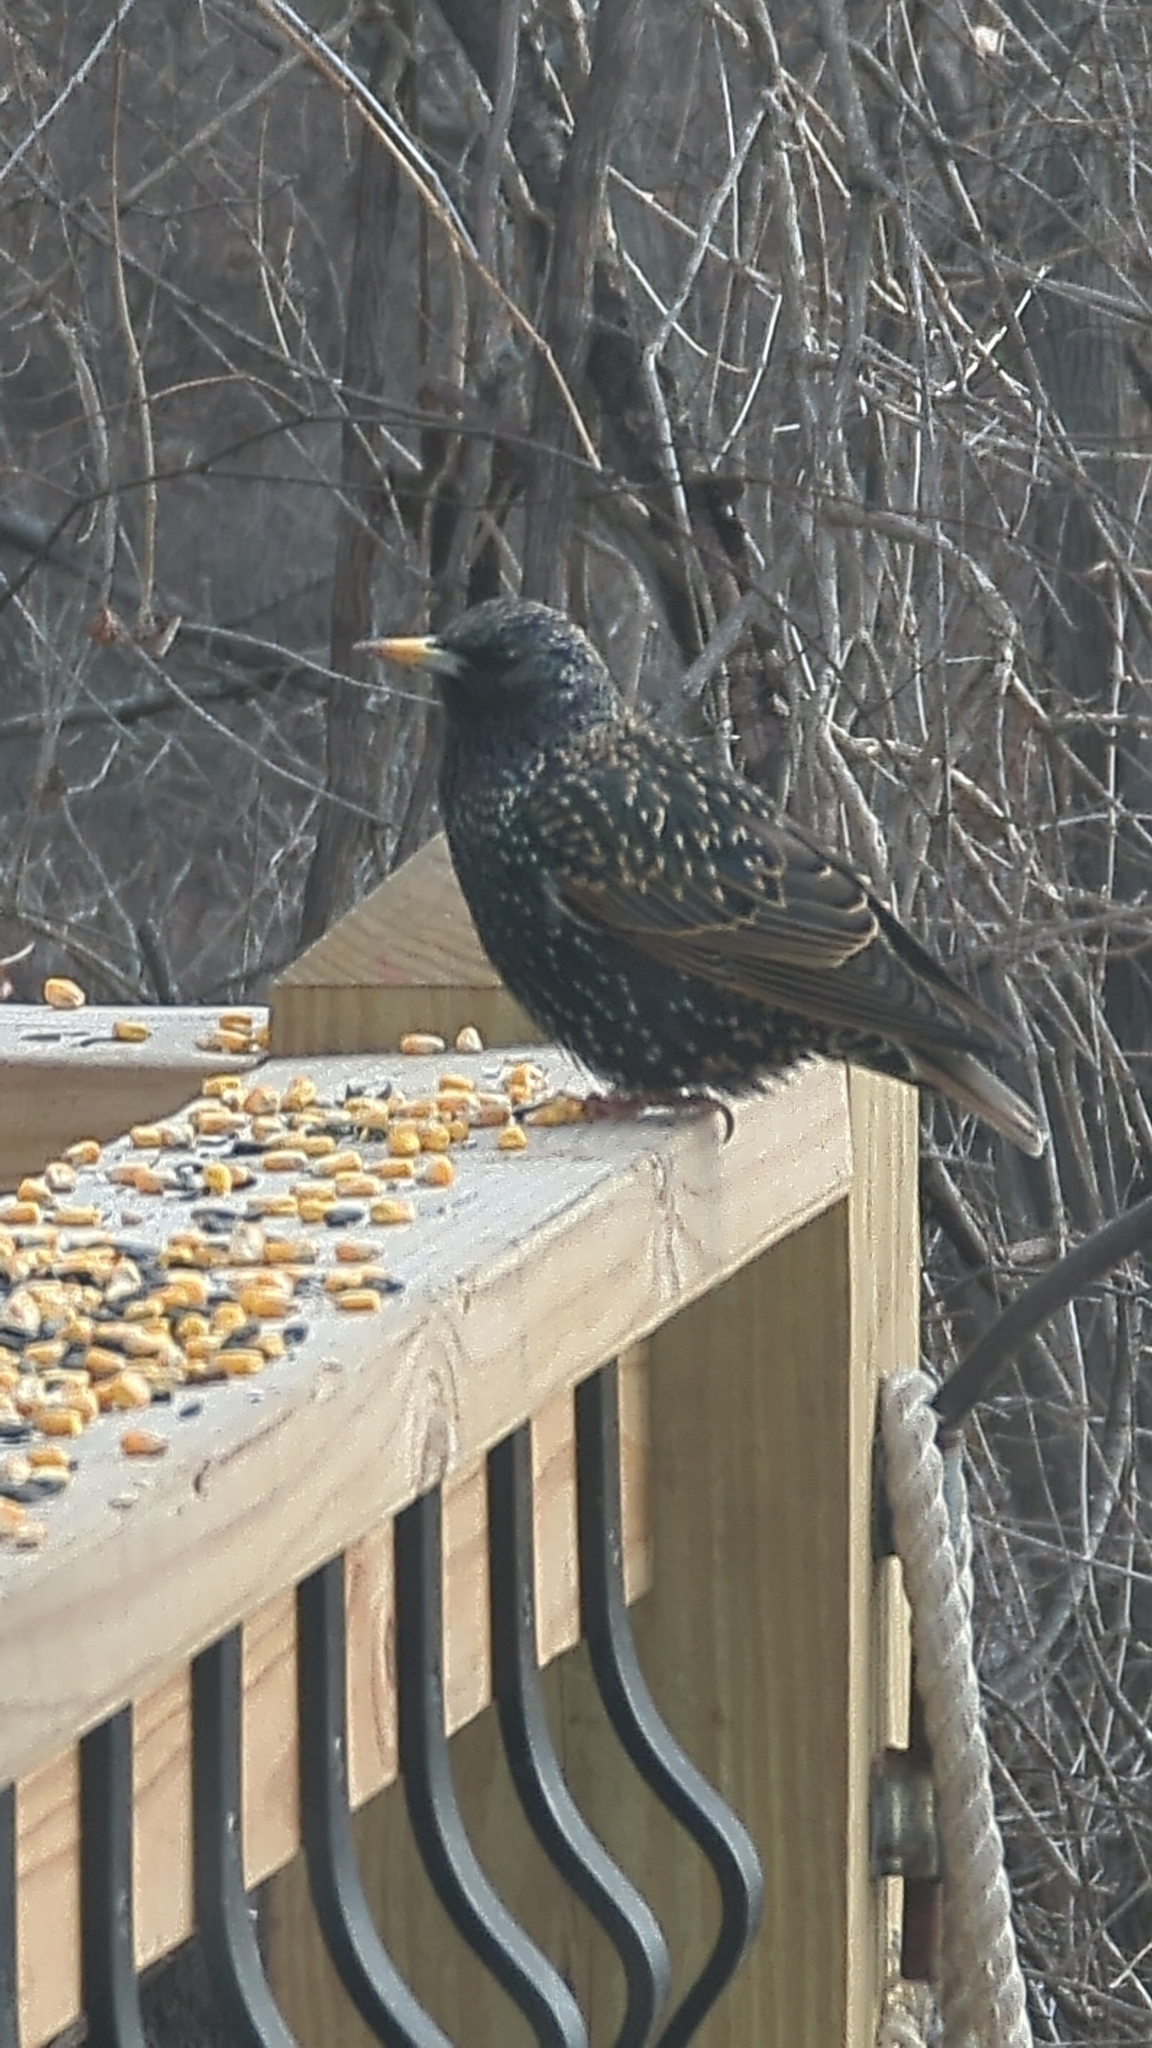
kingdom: Animalia
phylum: Chordata
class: Aves
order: Passeriformes
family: Sturnidae
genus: Sturnus
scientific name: Sturnus vulgaris
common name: Common starling
